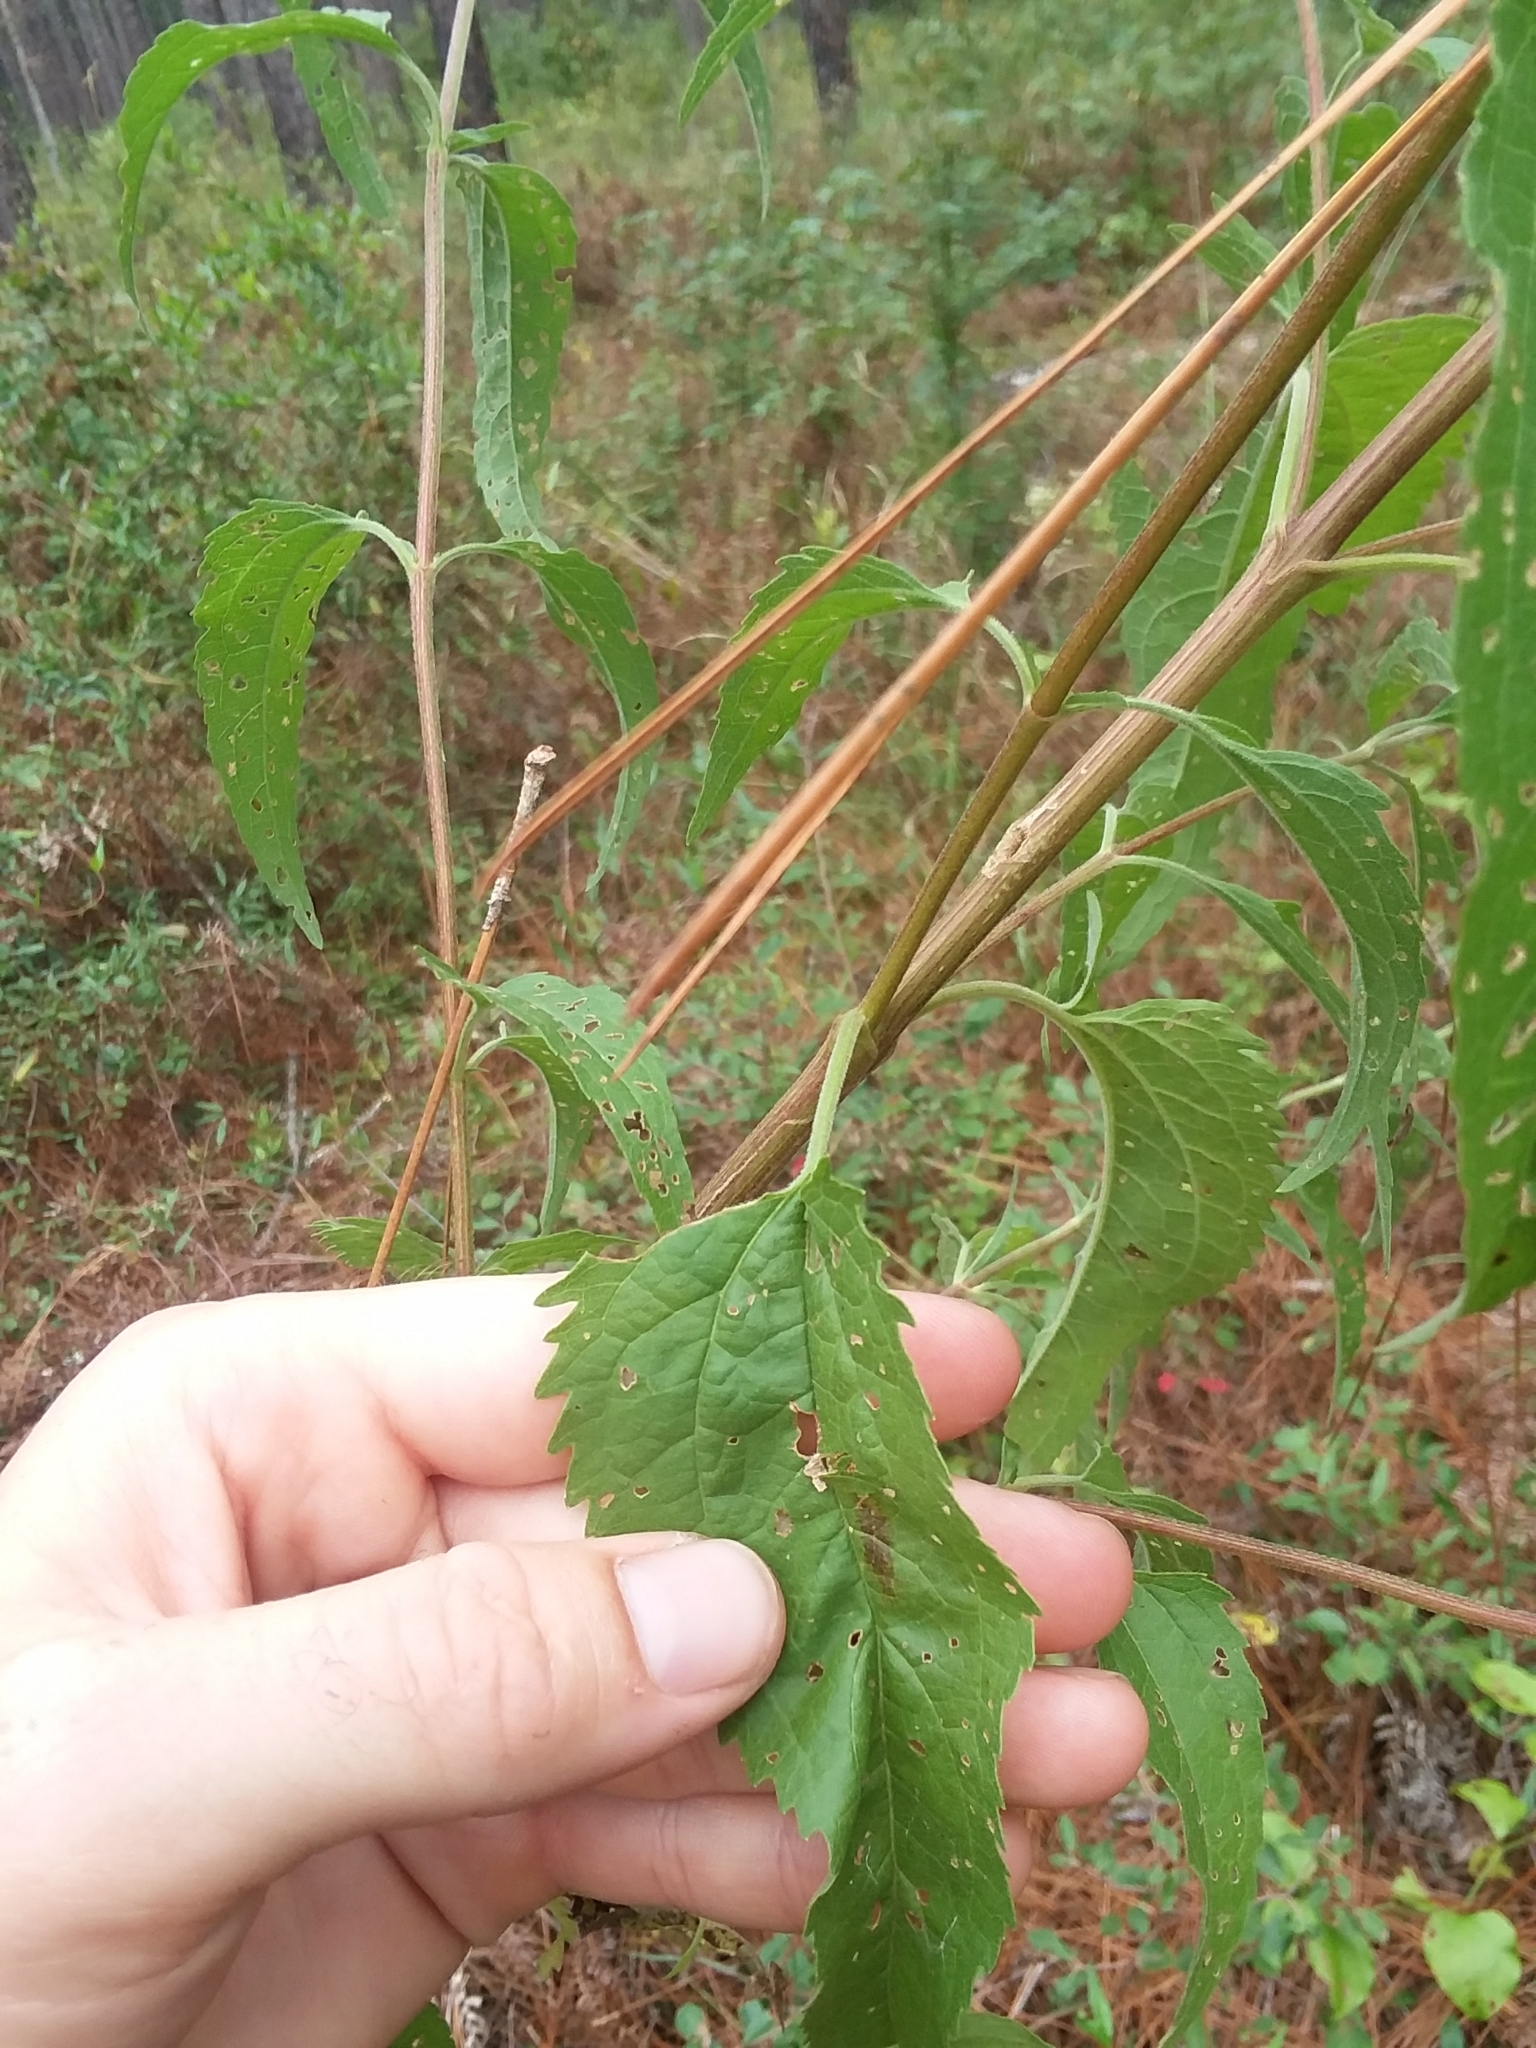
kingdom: Plantae
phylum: Tracheophyta
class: Magnoliopsida
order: Asterales
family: Asteraceae
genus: Eupatorium
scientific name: Eupatorium serotinum
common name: Late boneset
